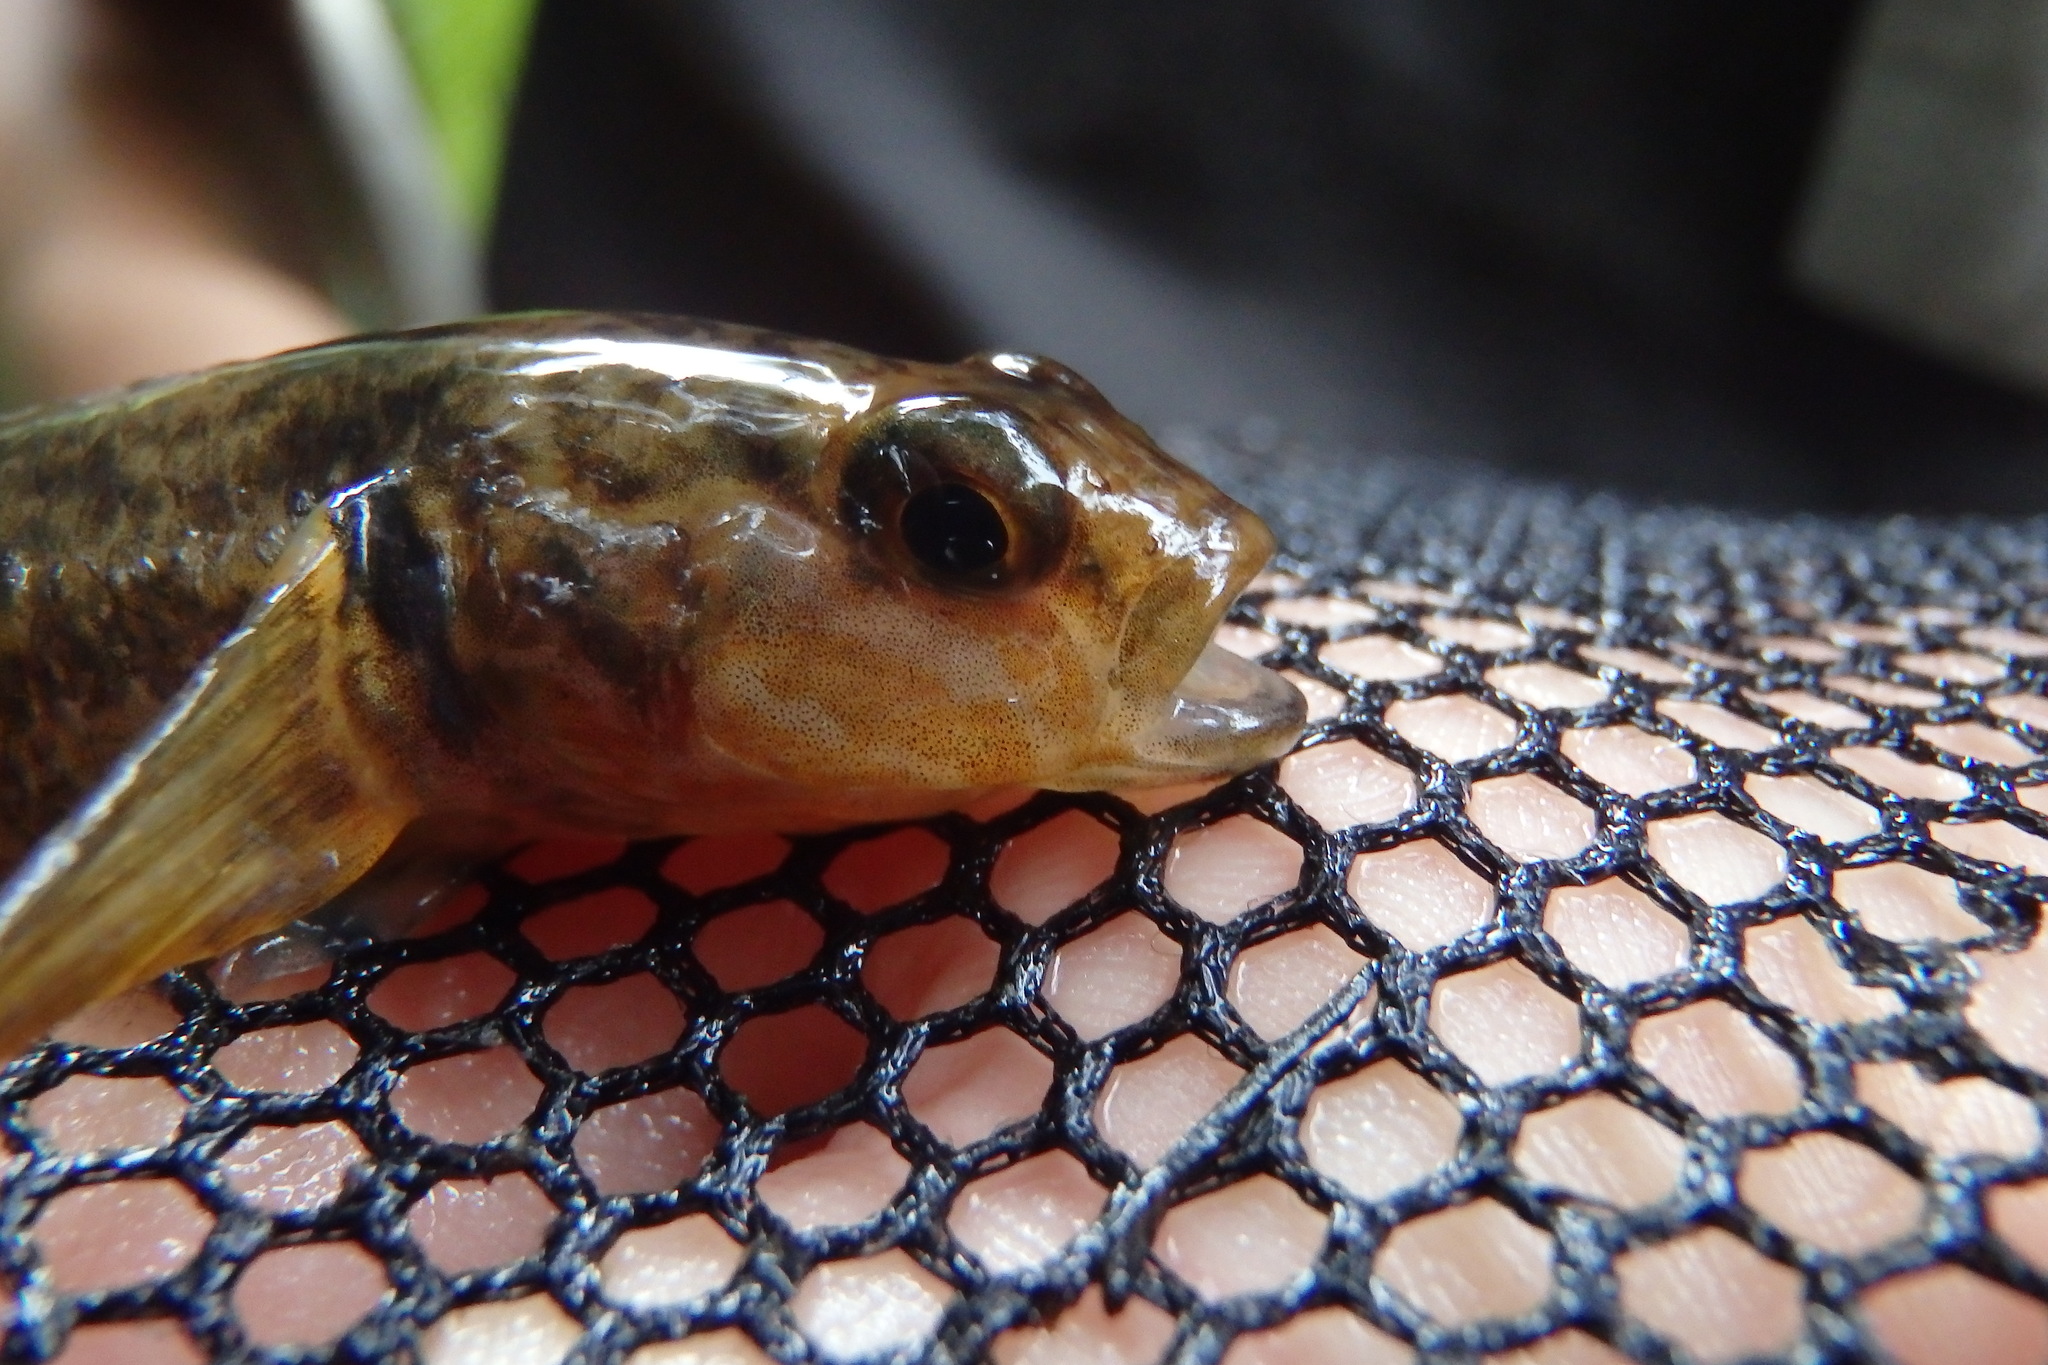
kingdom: Animalia
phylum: Chordata
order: Perciformes
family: Eleotridae
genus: Gobiomorphus
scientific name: Gobiomorphus huttoni
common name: Redfin bully
